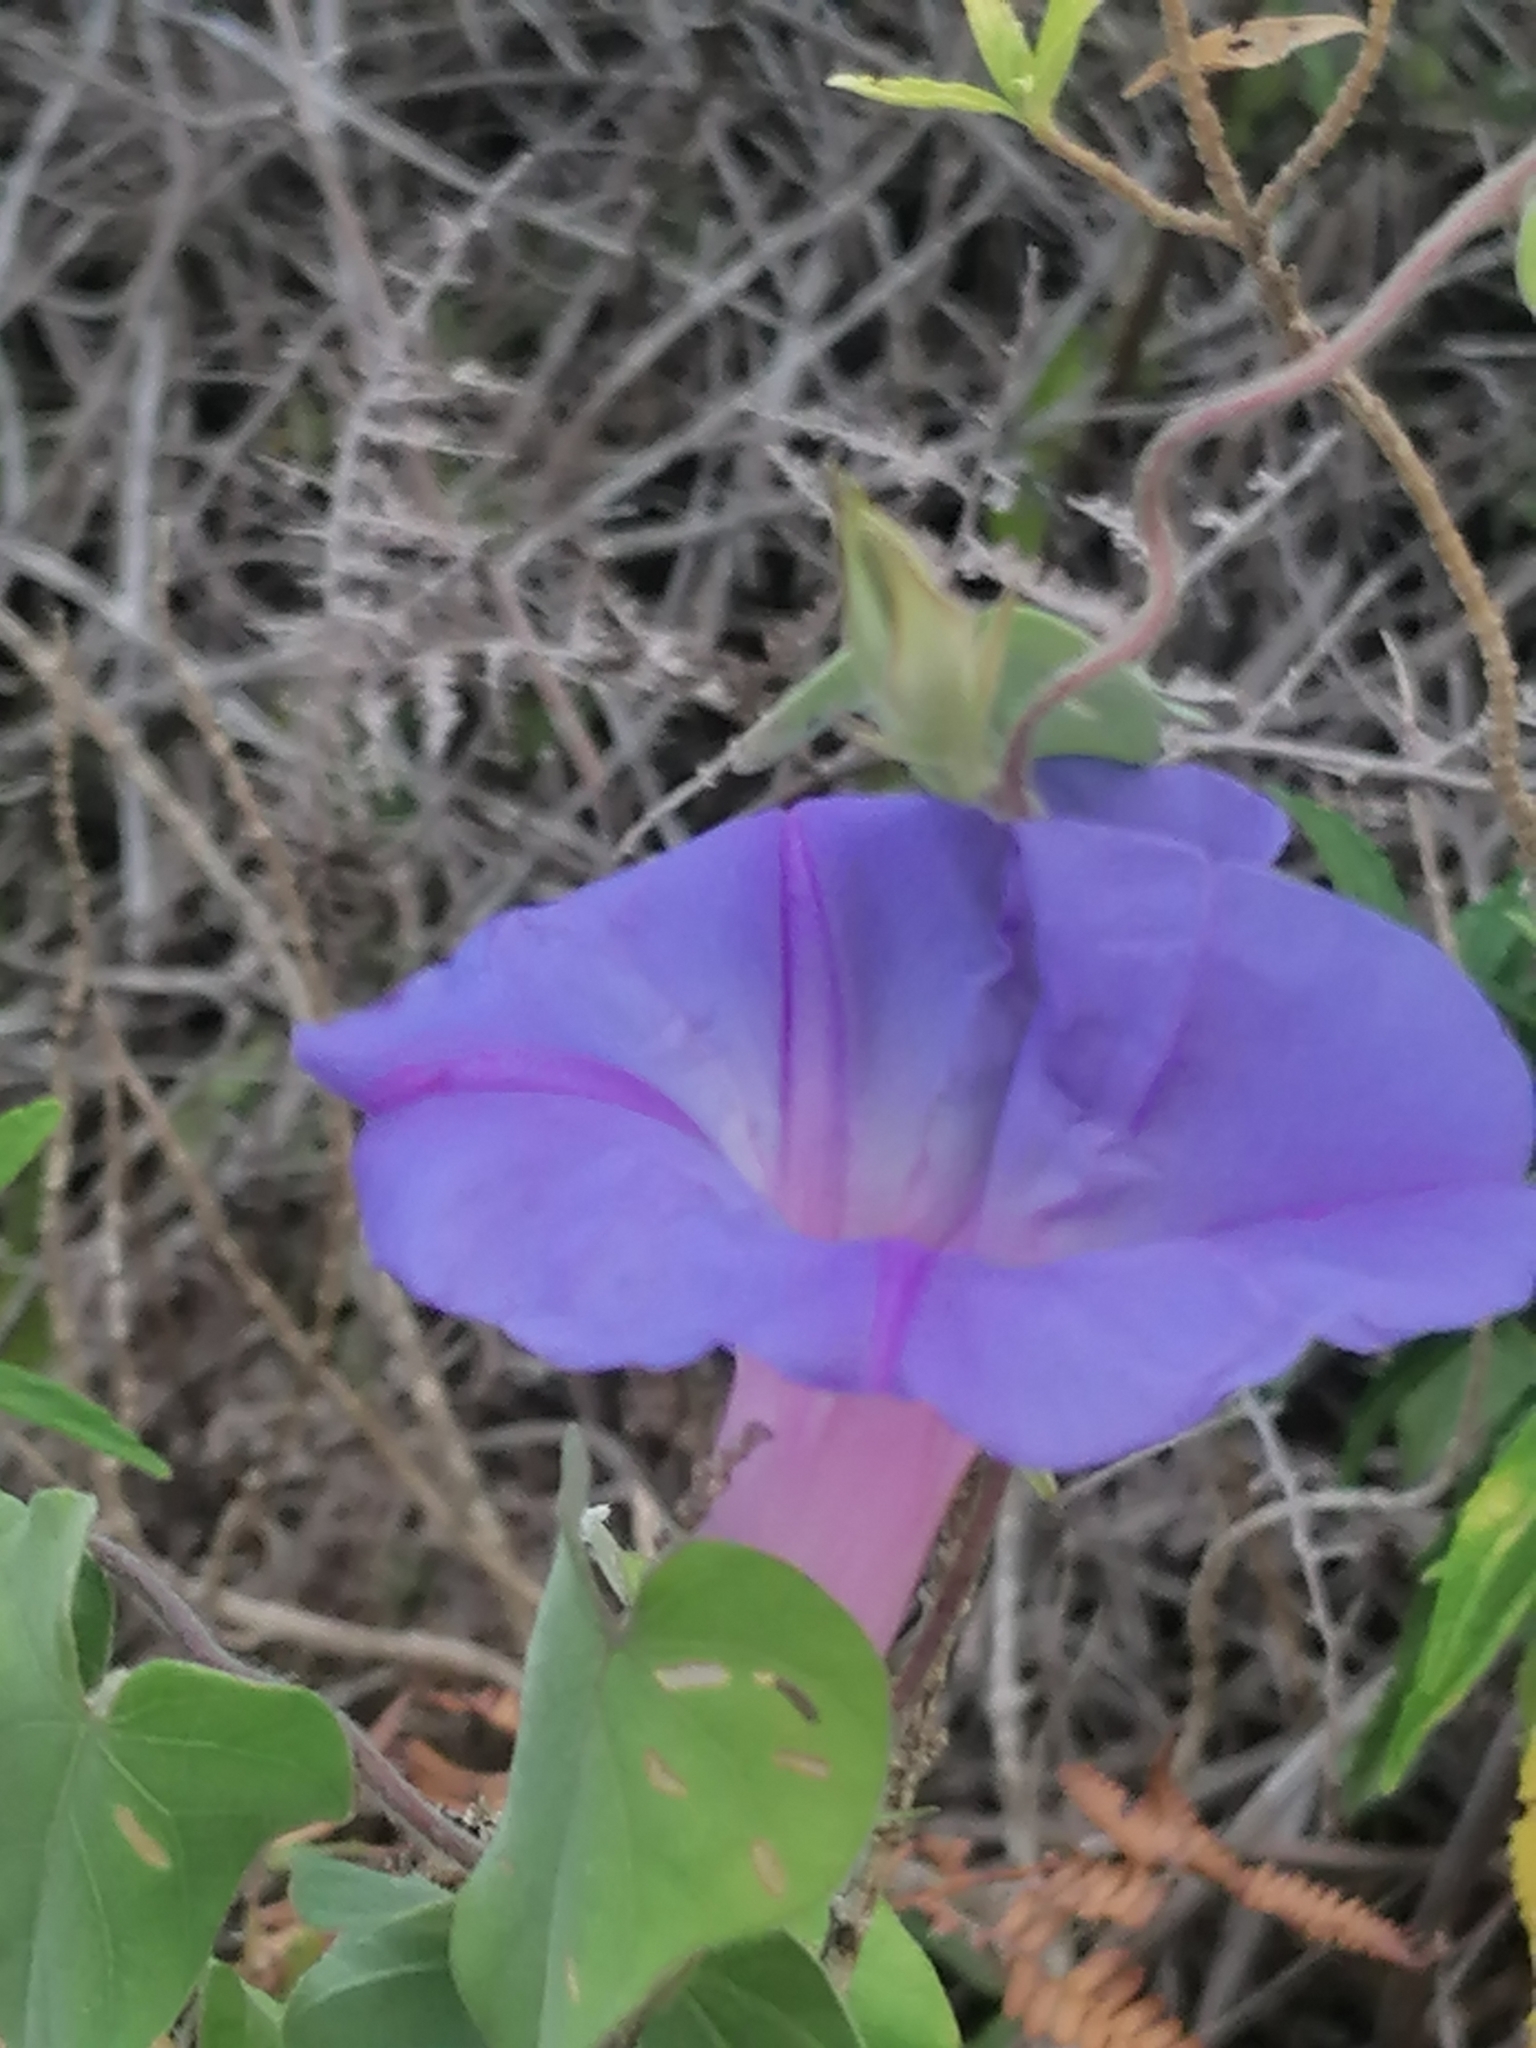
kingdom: Plantae
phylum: Tracheophyta
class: Magnoliopsida
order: Solanales
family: Convolvulaceae
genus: Ipomoea
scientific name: Ipomoea indica
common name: Blue dawnflower
